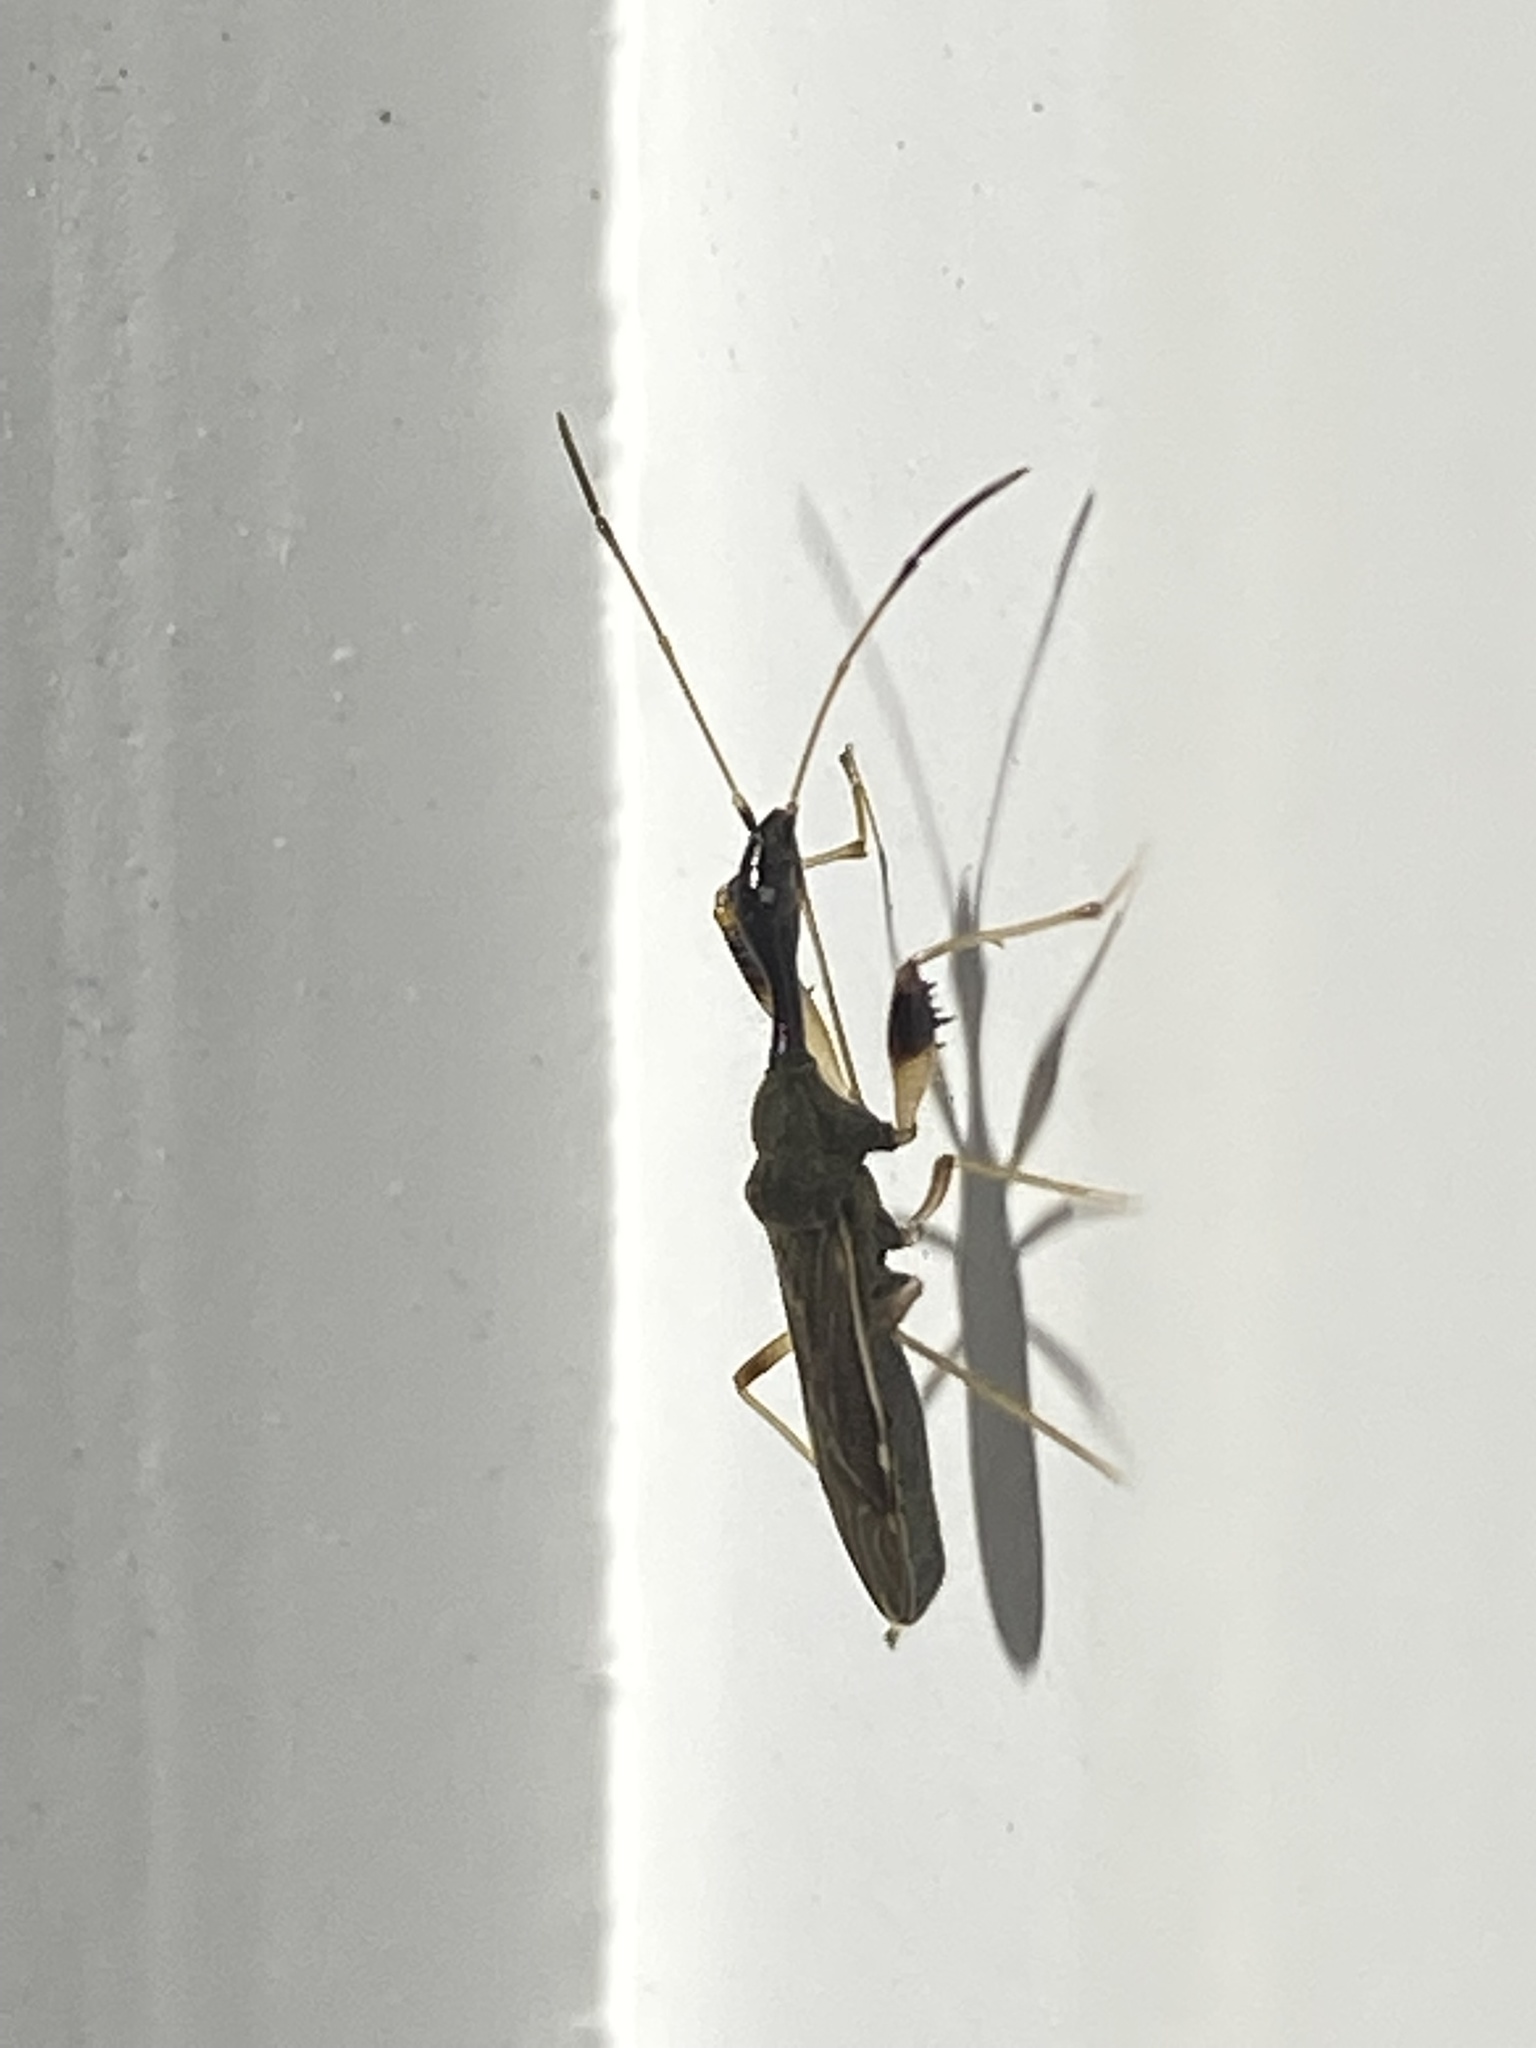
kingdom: Animalia
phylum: Arthropoda
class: Insecta
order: Hemiptera
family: Rhyparochromidae
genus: Myodocha
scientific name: Myodocha serripes
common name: Long-necked seed bug
